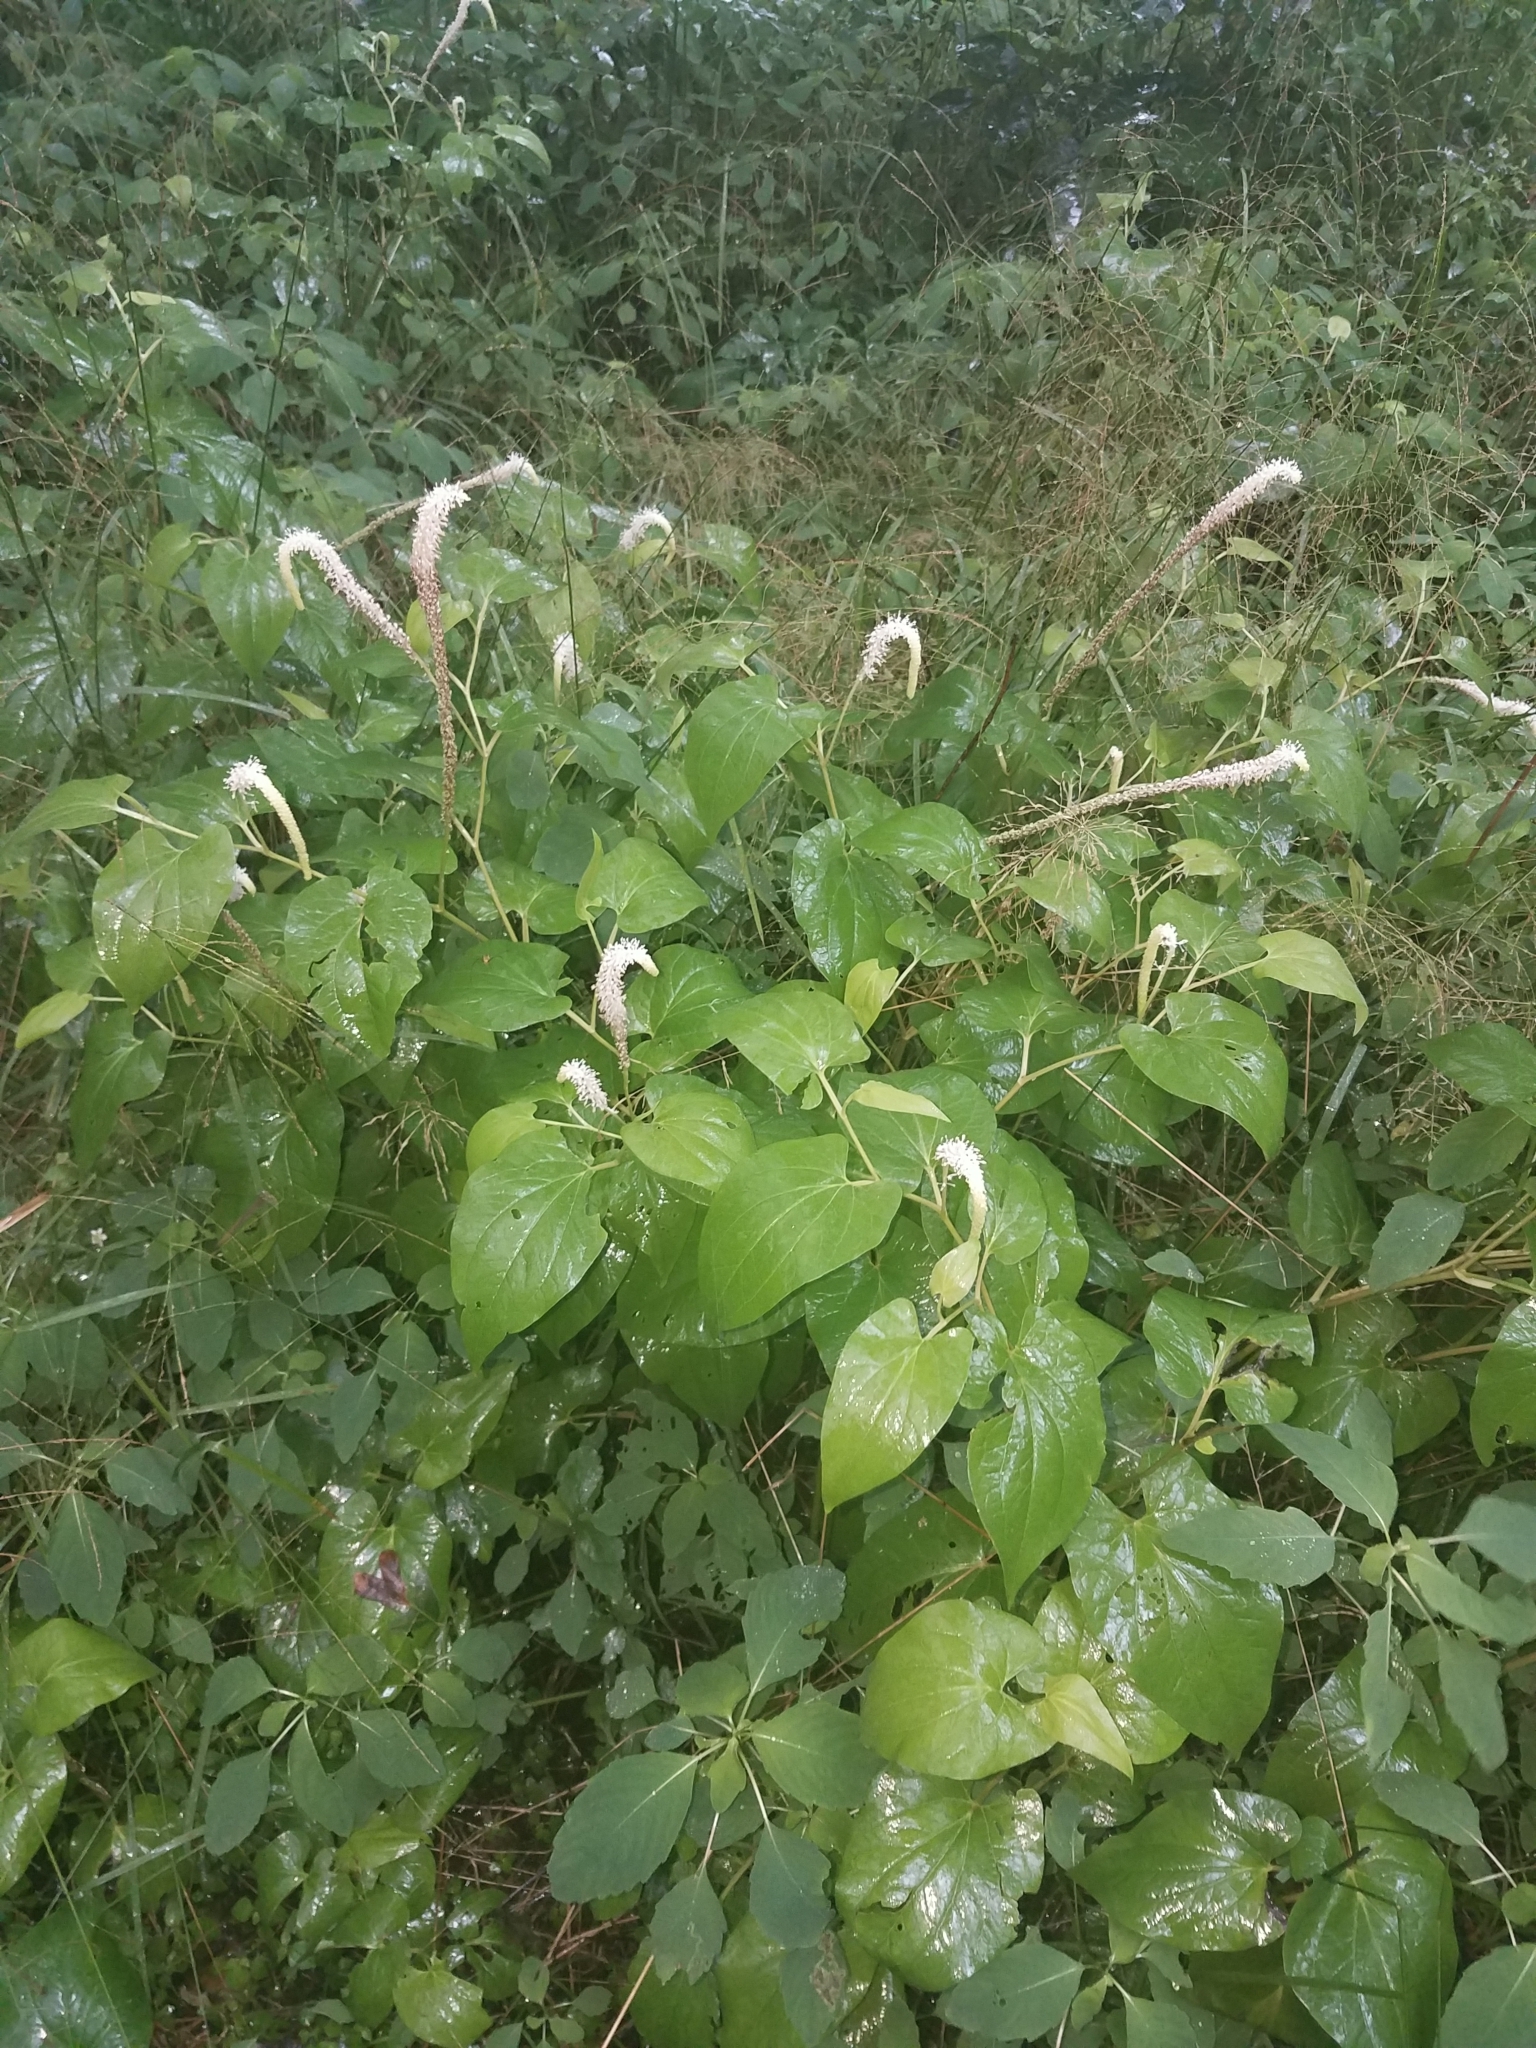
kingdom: Plantae
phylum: Tracheophyta
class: Magnoliopsida
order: Piperales
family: Saururaceae
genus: Saururus
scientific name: Saururus cernuus
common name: Lizard's-tail
